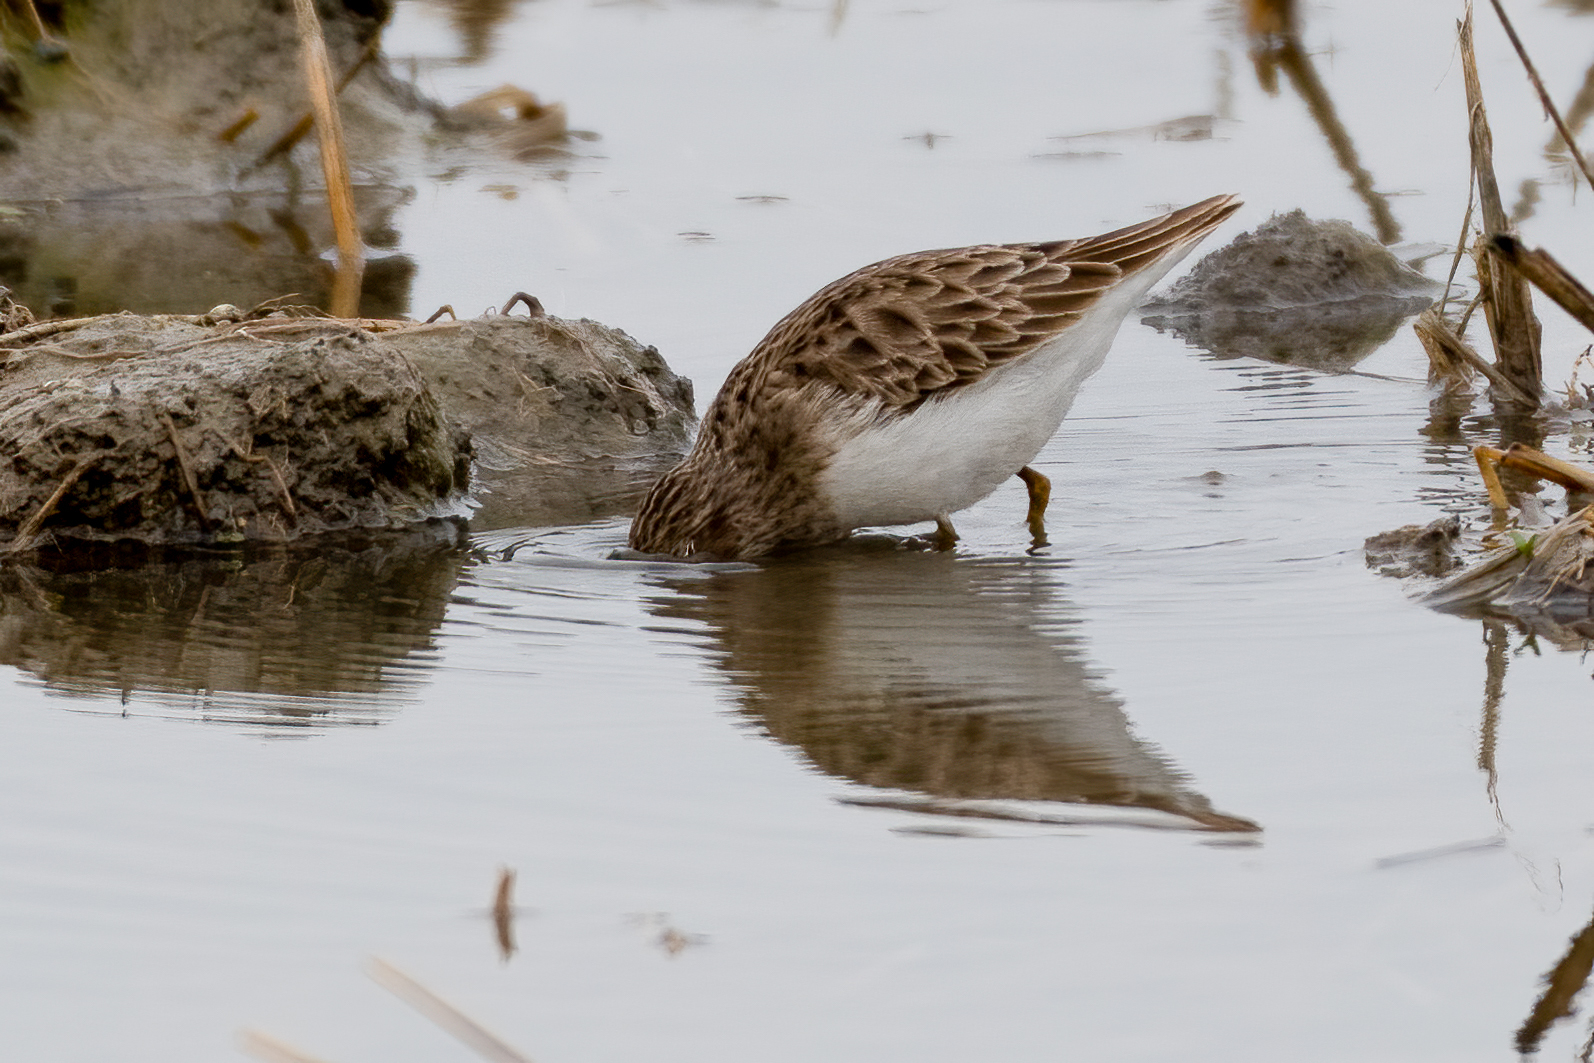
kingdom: Animalia
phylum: Chordata
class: Aves
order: Charadriiformes
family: Scolopacidae
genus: Calidris
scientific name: Calidris minutilla
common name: Least sandpiper
